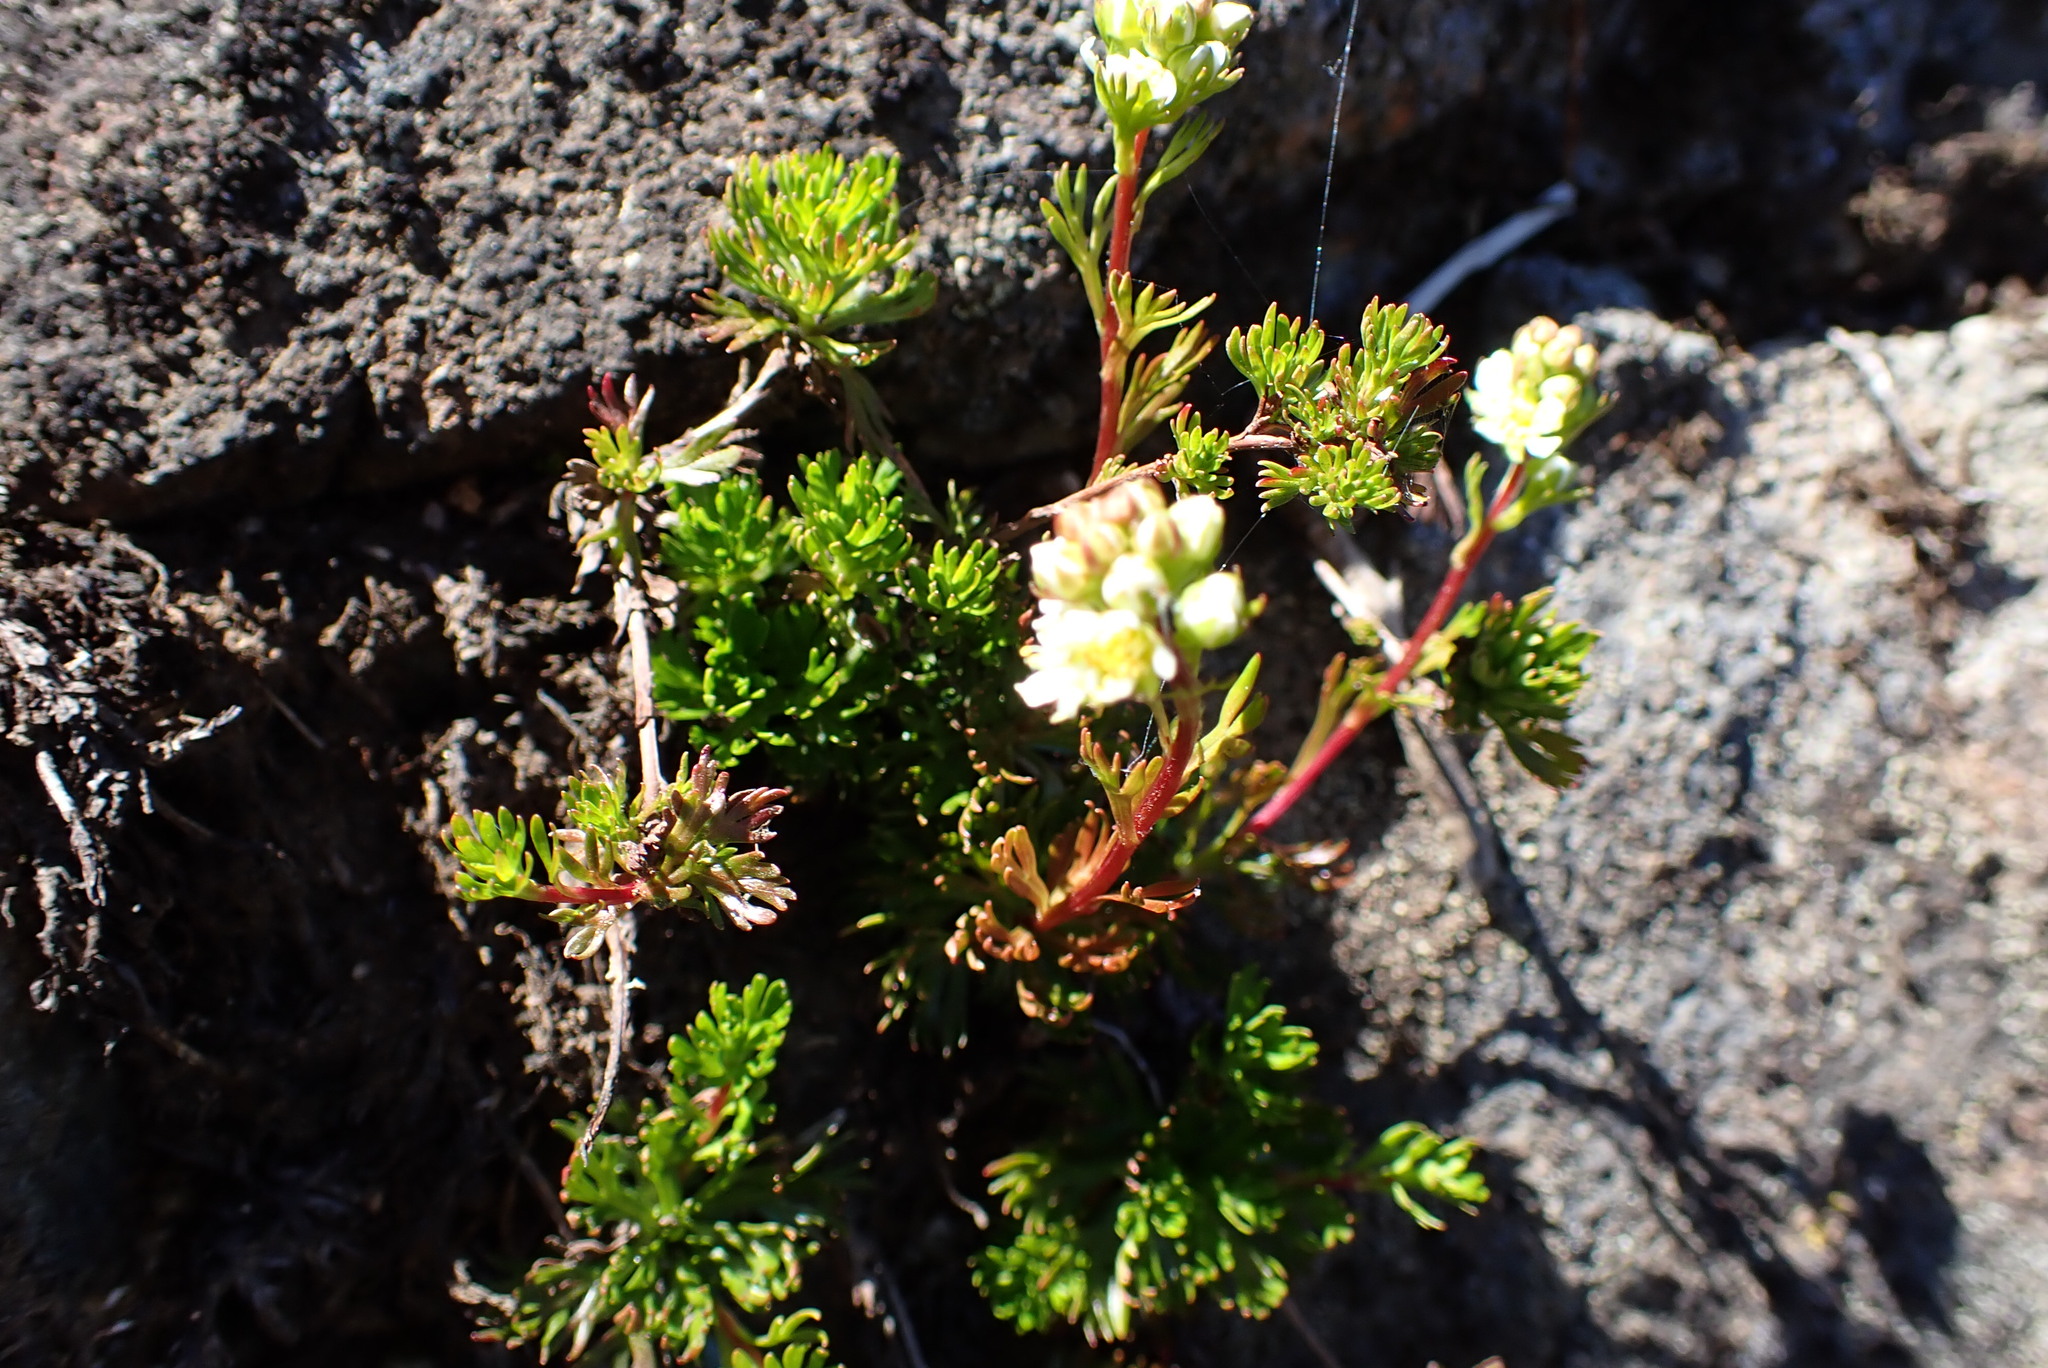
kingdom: Plantae
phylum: Tracheophyta
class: Magnoliopsida
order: Rosales
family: Rosaceae
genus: Luetkea
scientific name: Luetkea pectinata
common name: Partridgefoot
